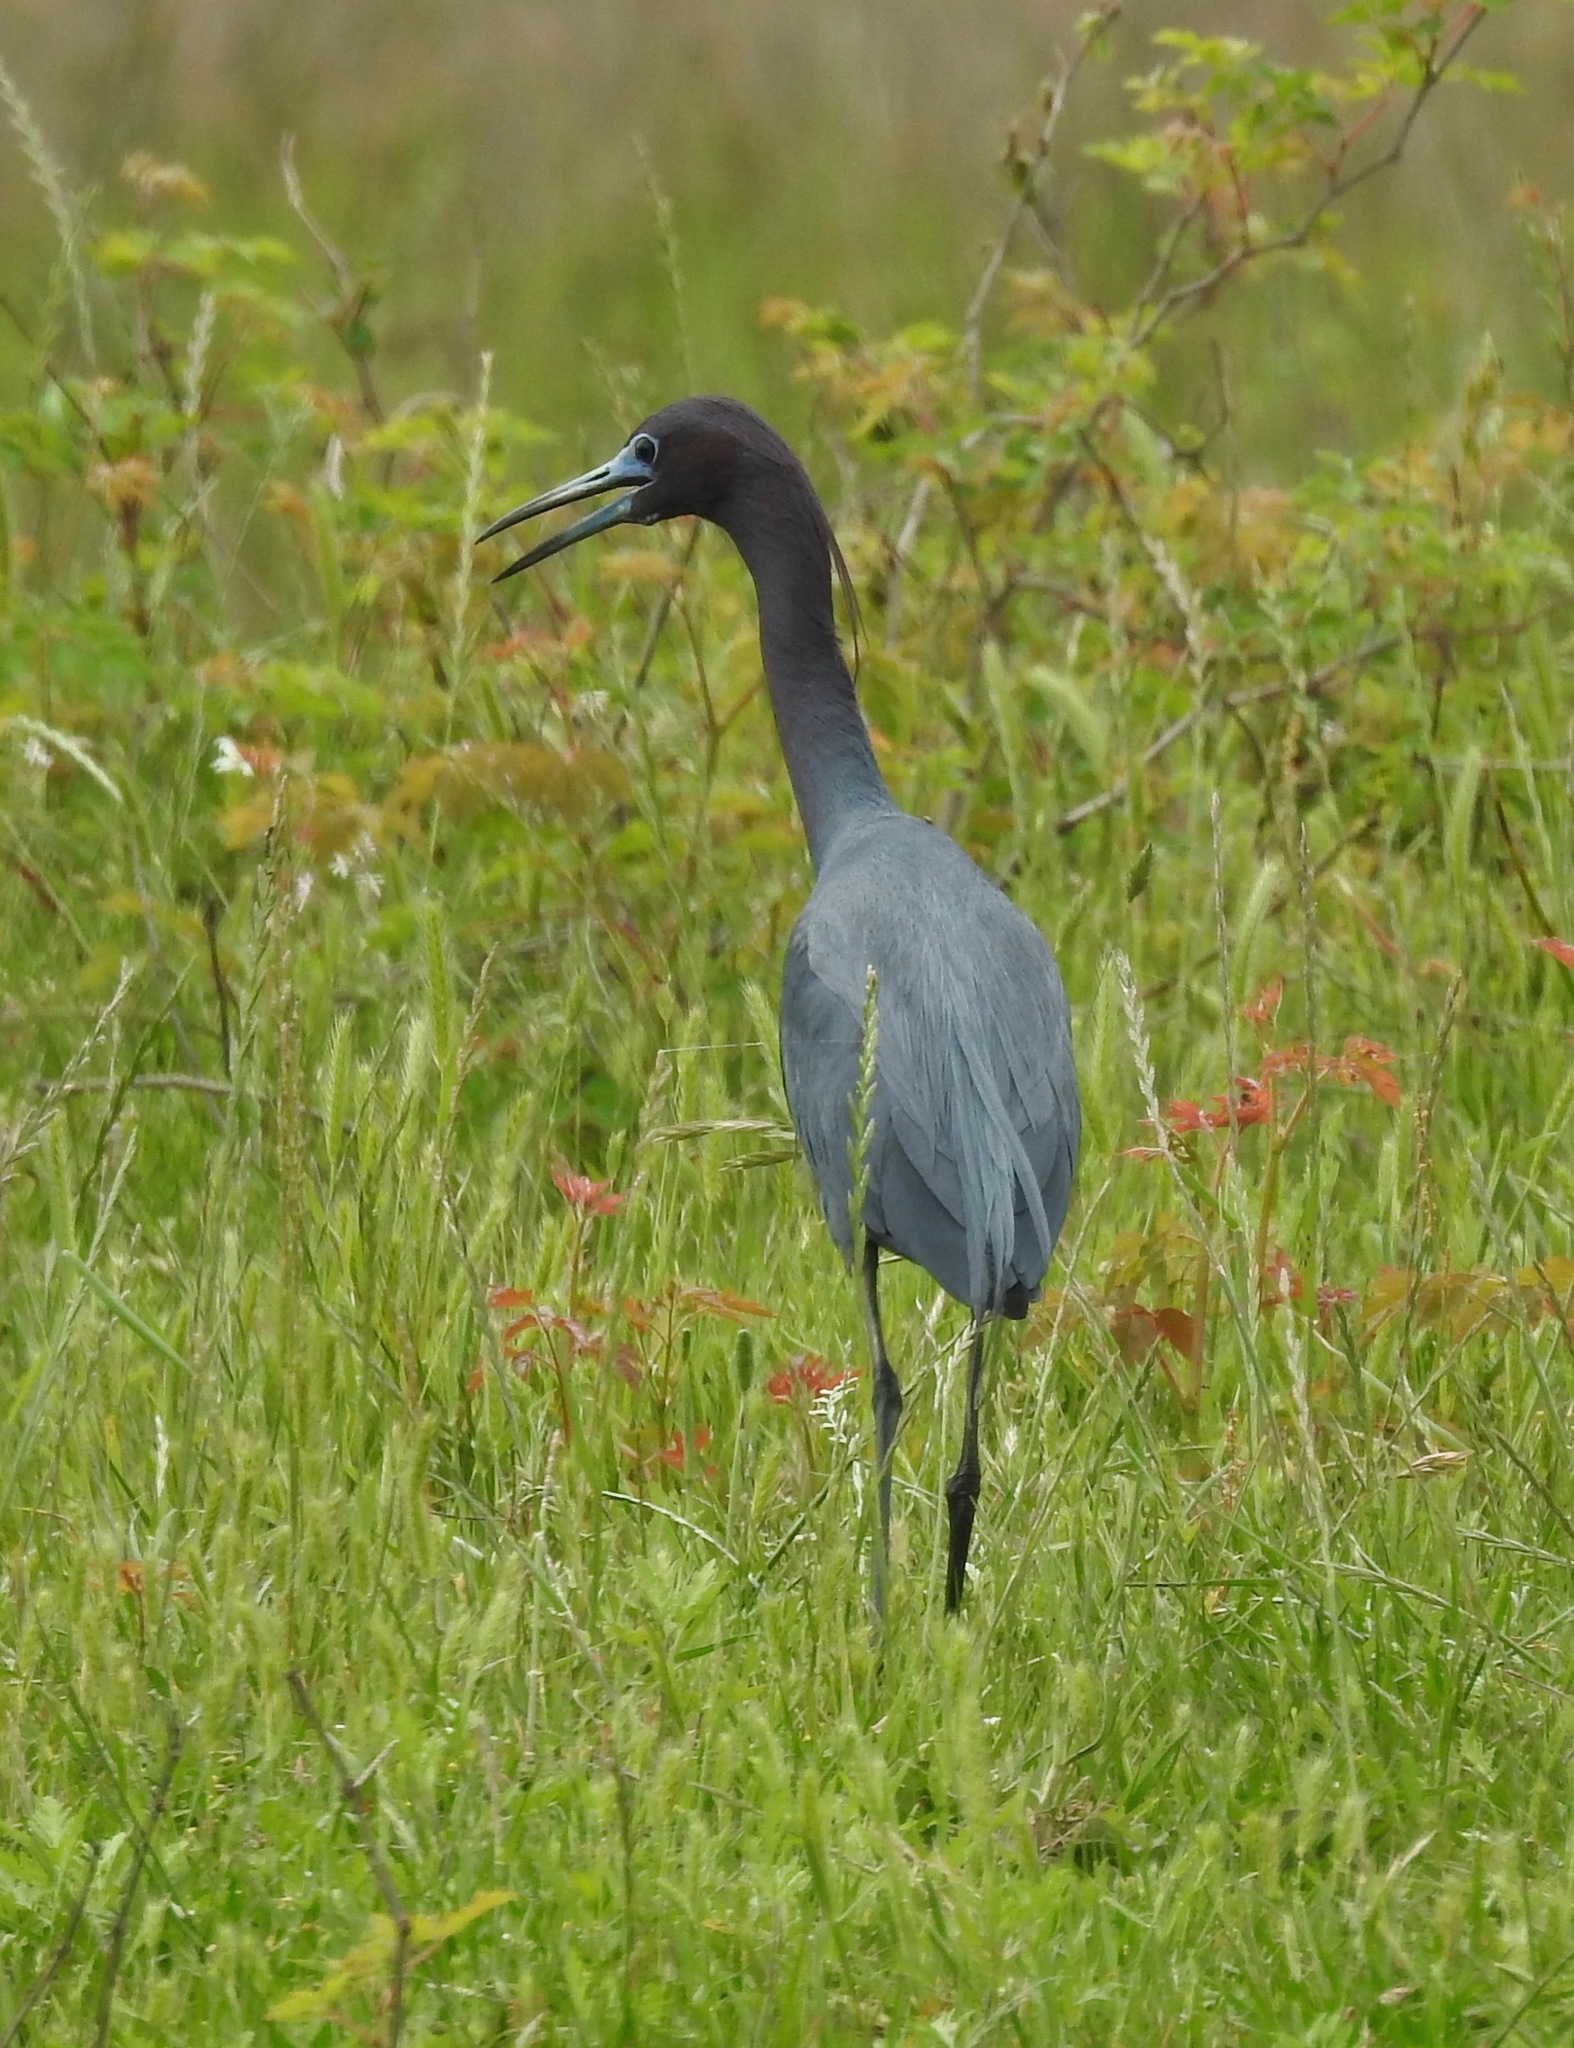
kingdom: Animalia
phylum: Chordata
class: Aves
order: Pelecaniformes
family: Ardeidae
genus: Egretta
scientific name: Egretta caerulea
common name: Little blue heron
